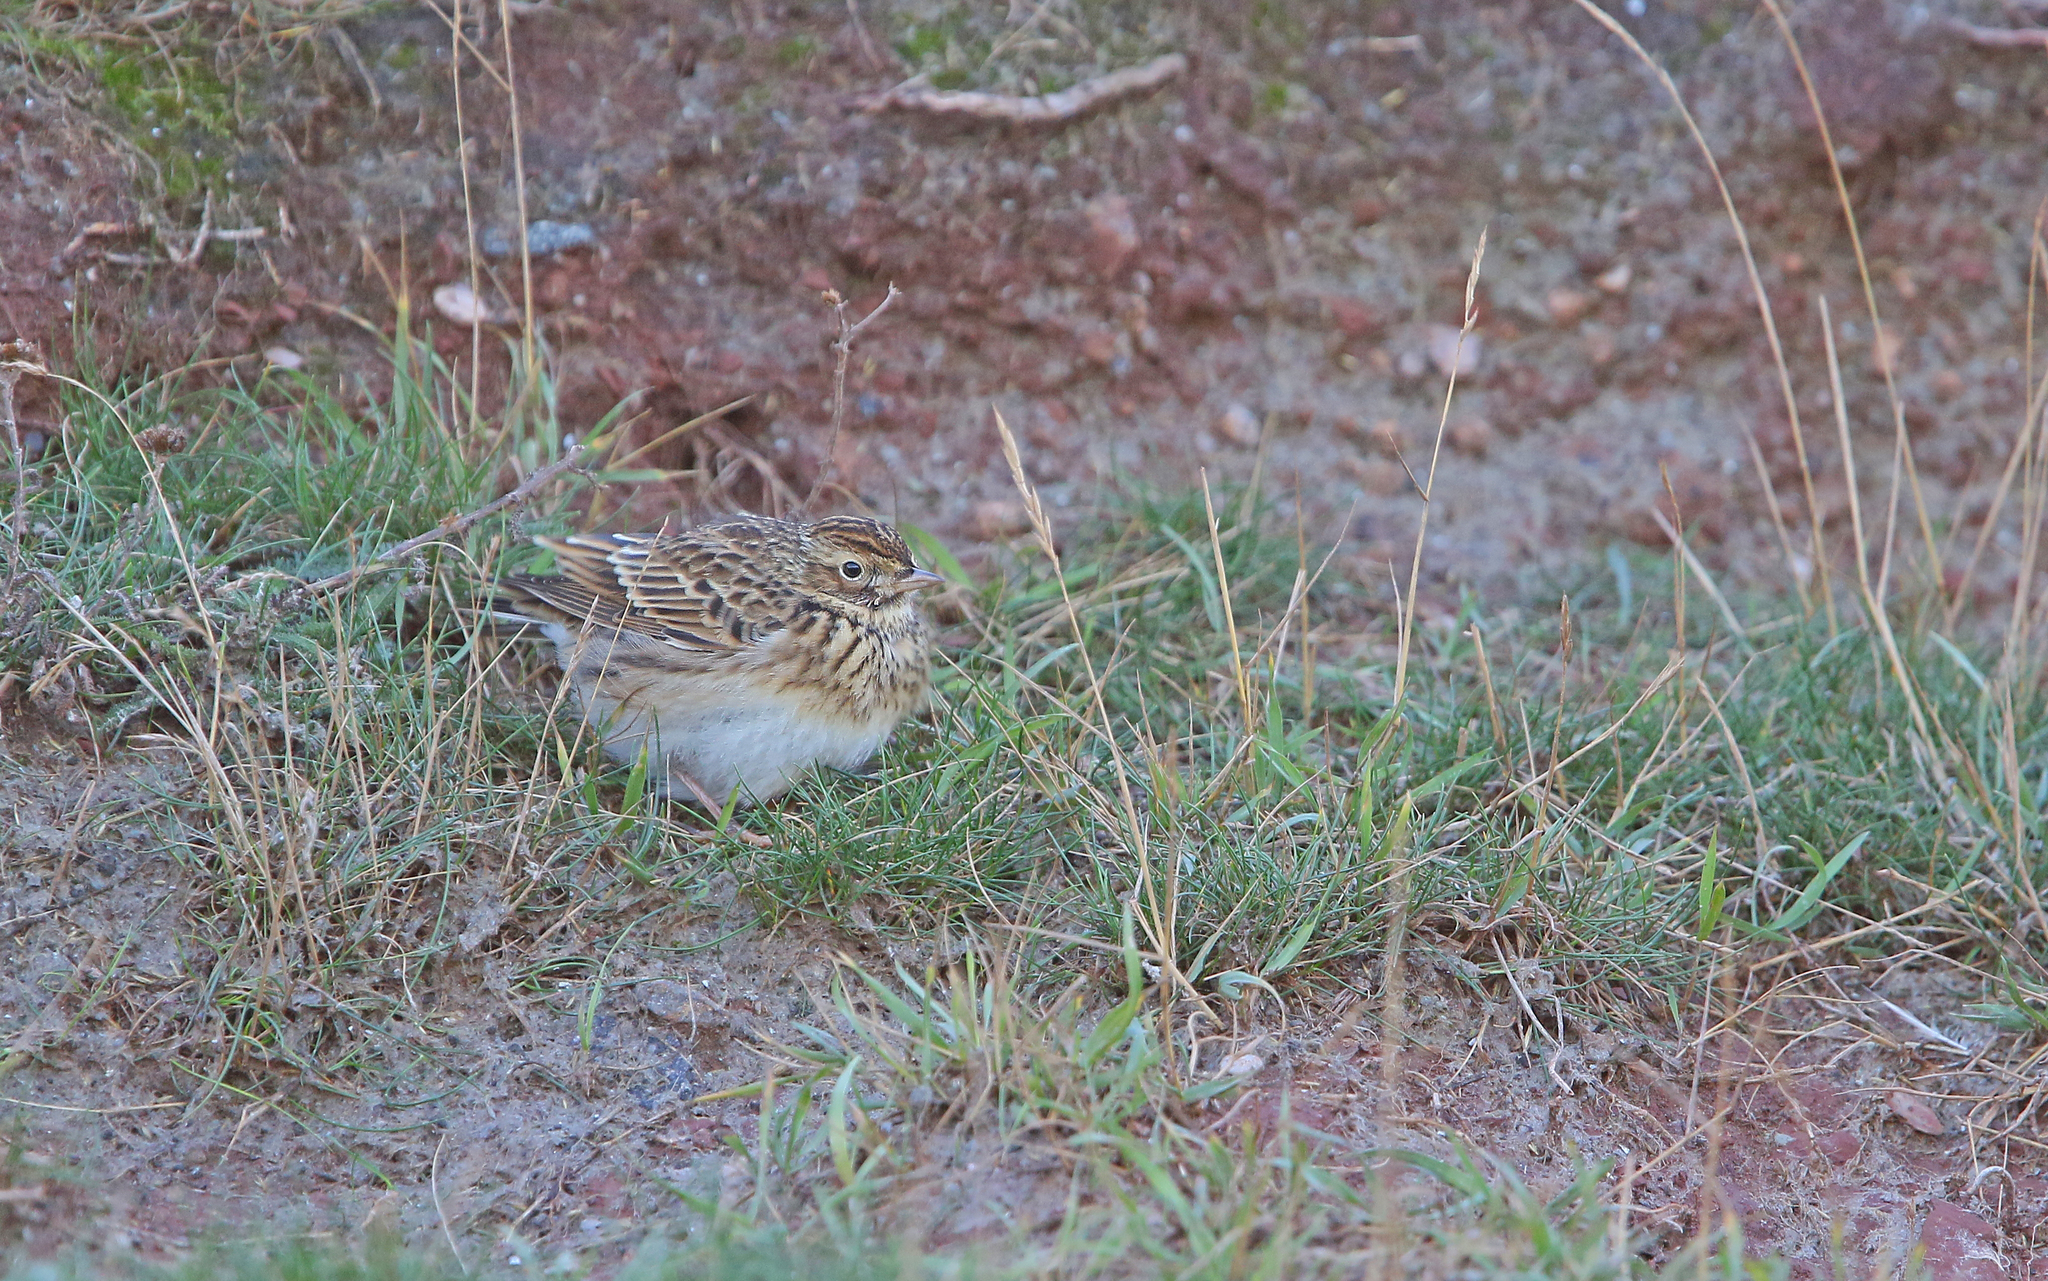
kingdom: Animalia
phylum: Chordata
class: Aves
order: Passeriformes
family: Alaudidae
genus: Alauda
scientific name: Alauda arvensis
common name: Eurasian skylark
